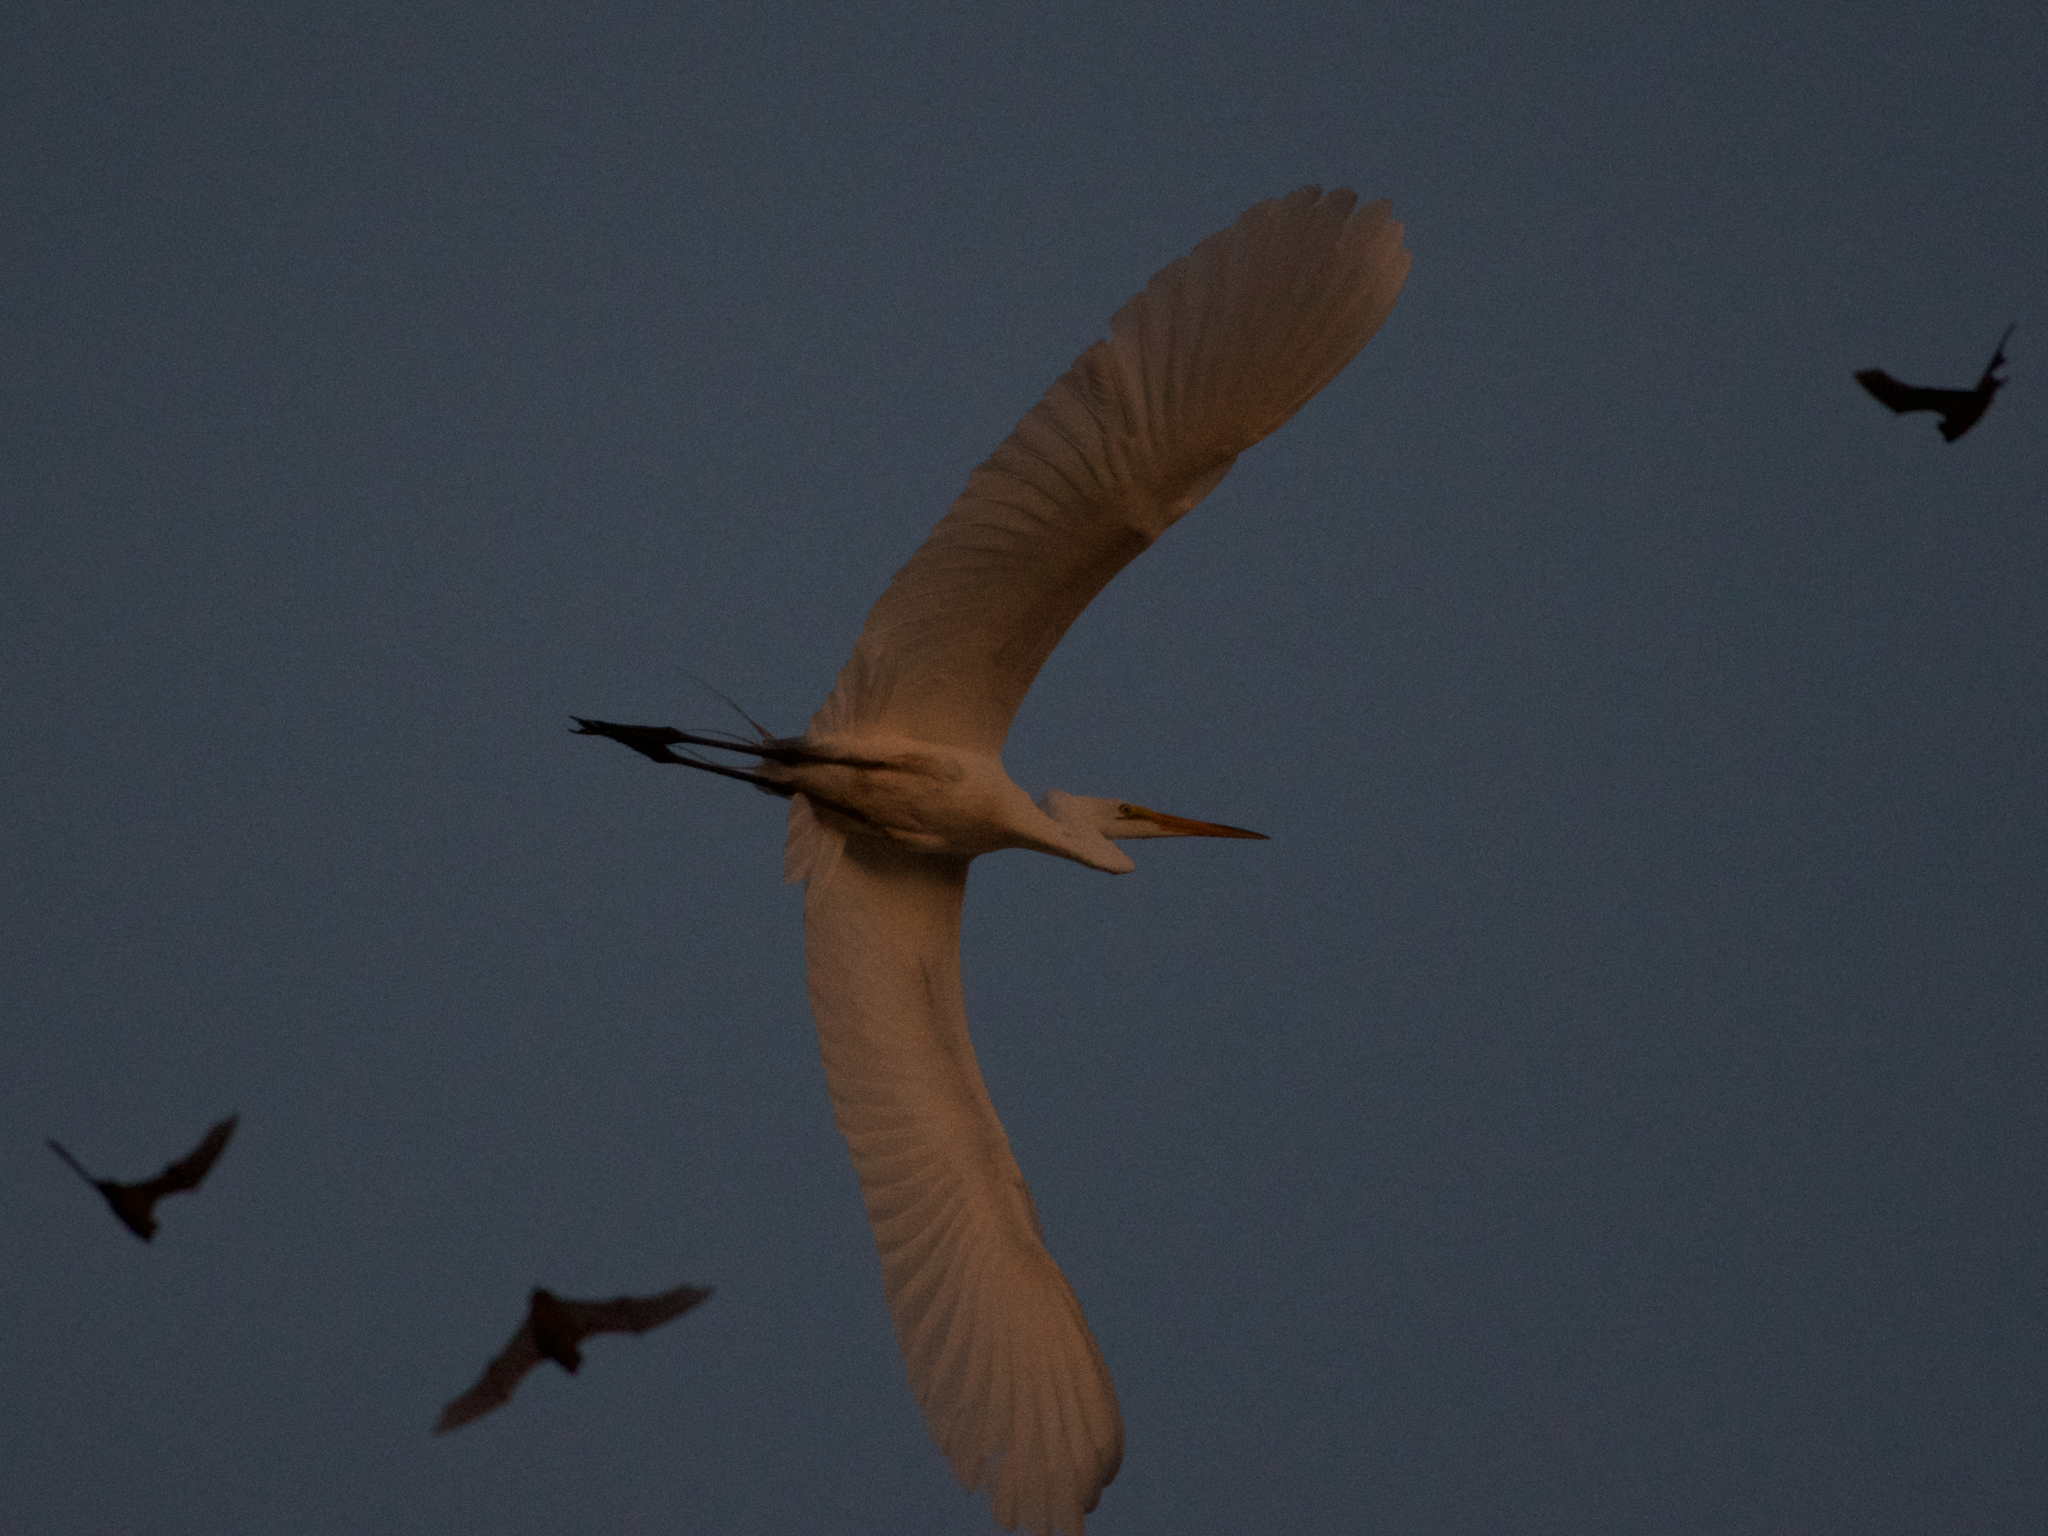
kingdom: Animalia
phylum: Chordata
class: Aves
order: Pelecaniformes
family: Ardeidae
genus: Ardea
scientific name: Ardea alba
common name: Great egret
